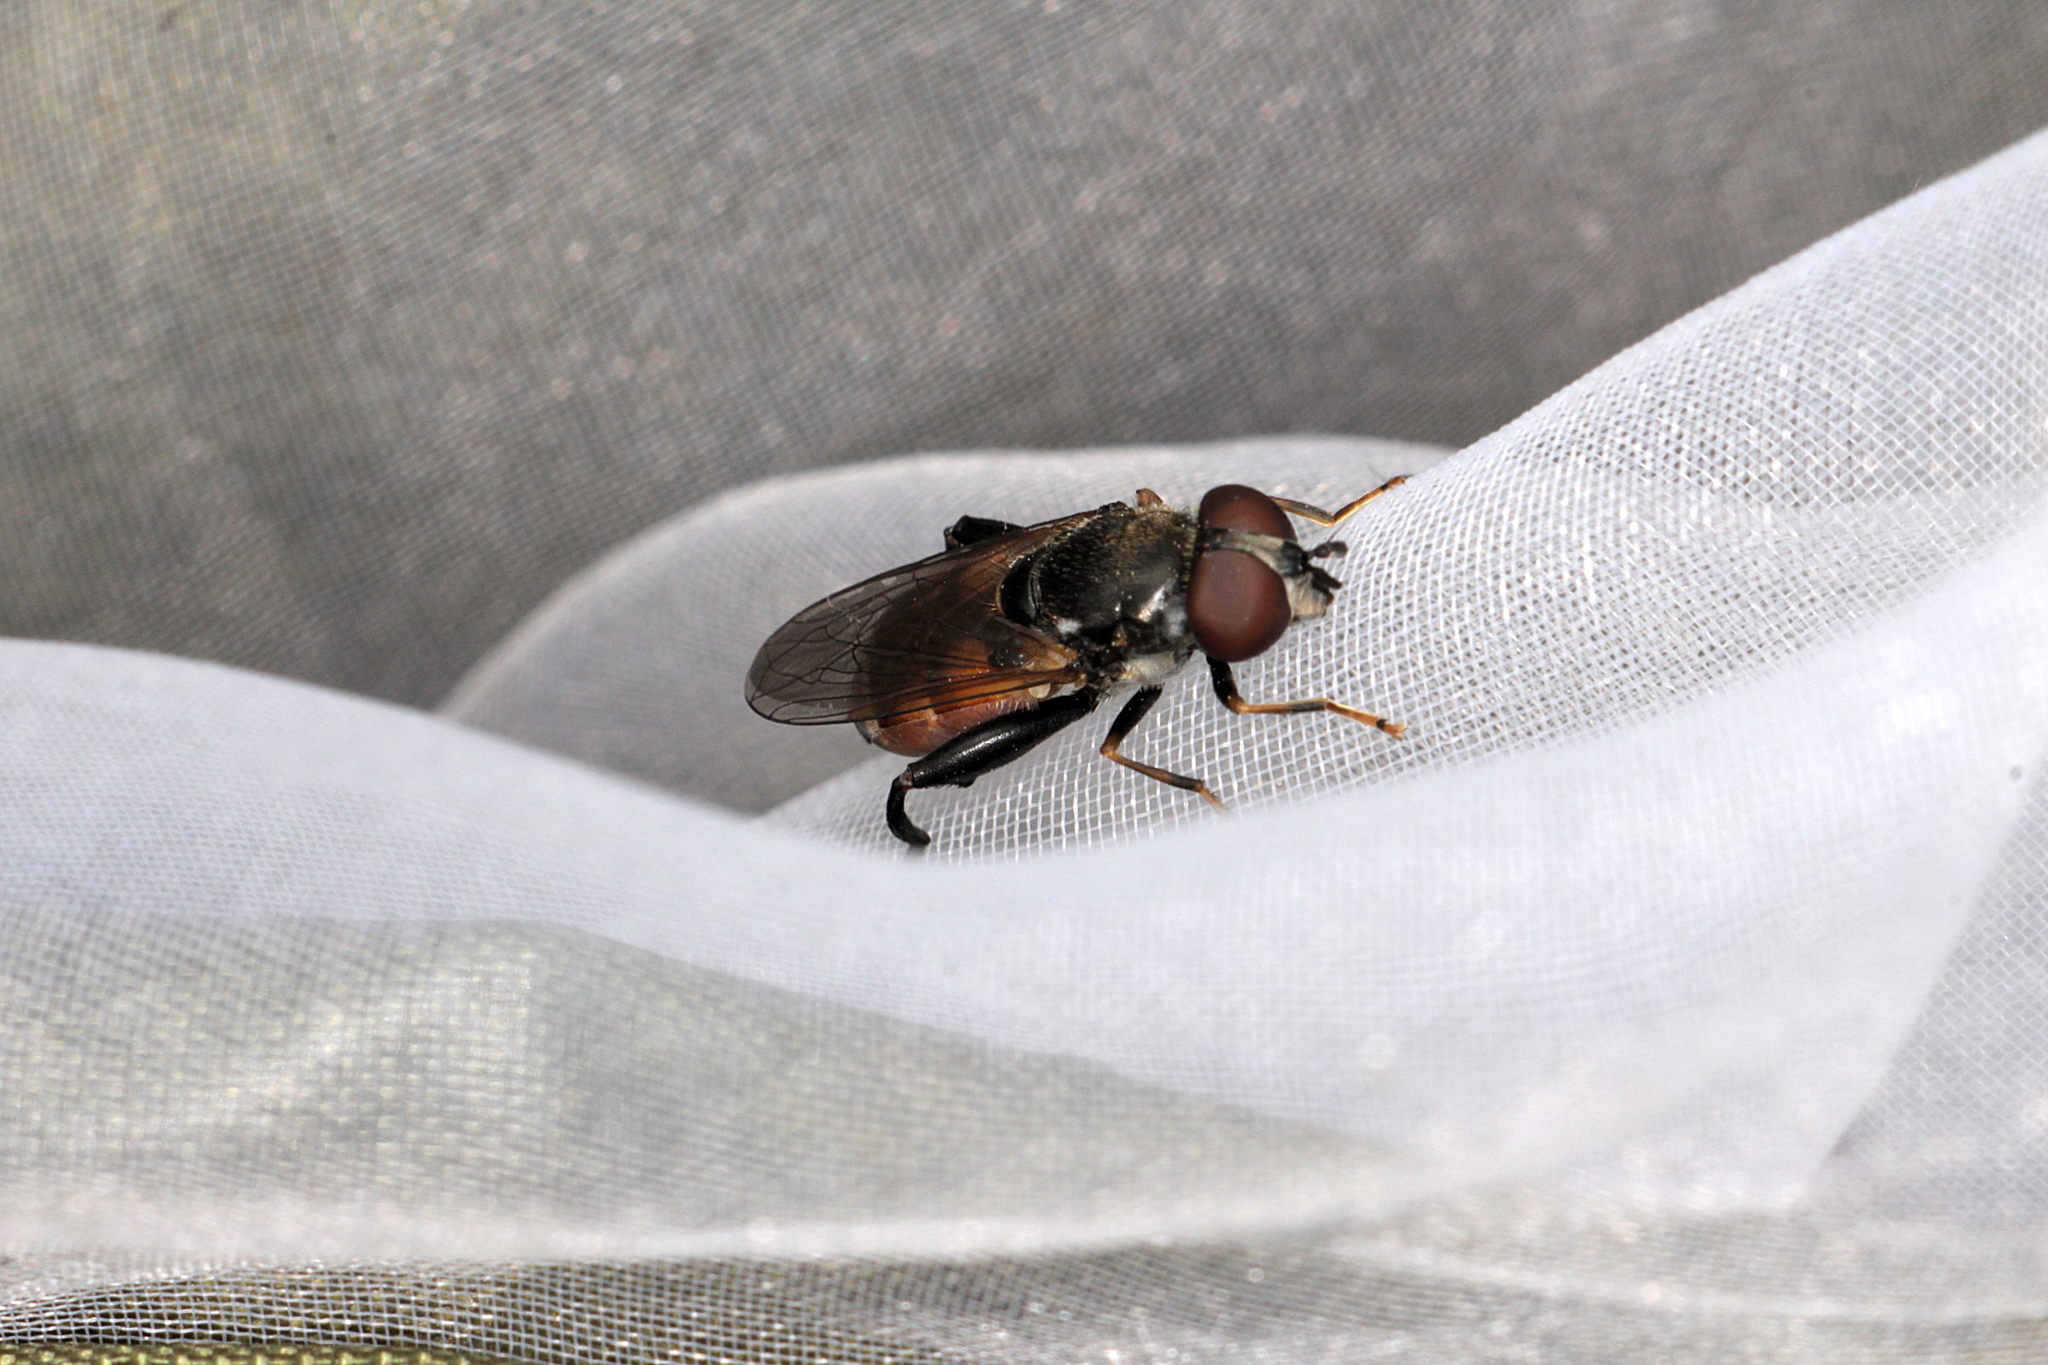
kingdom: Animalia
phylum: Arthropoda
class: Insecta
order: Diptera
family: Syrphidae
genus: Tropidia
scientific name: Tropidia scita
